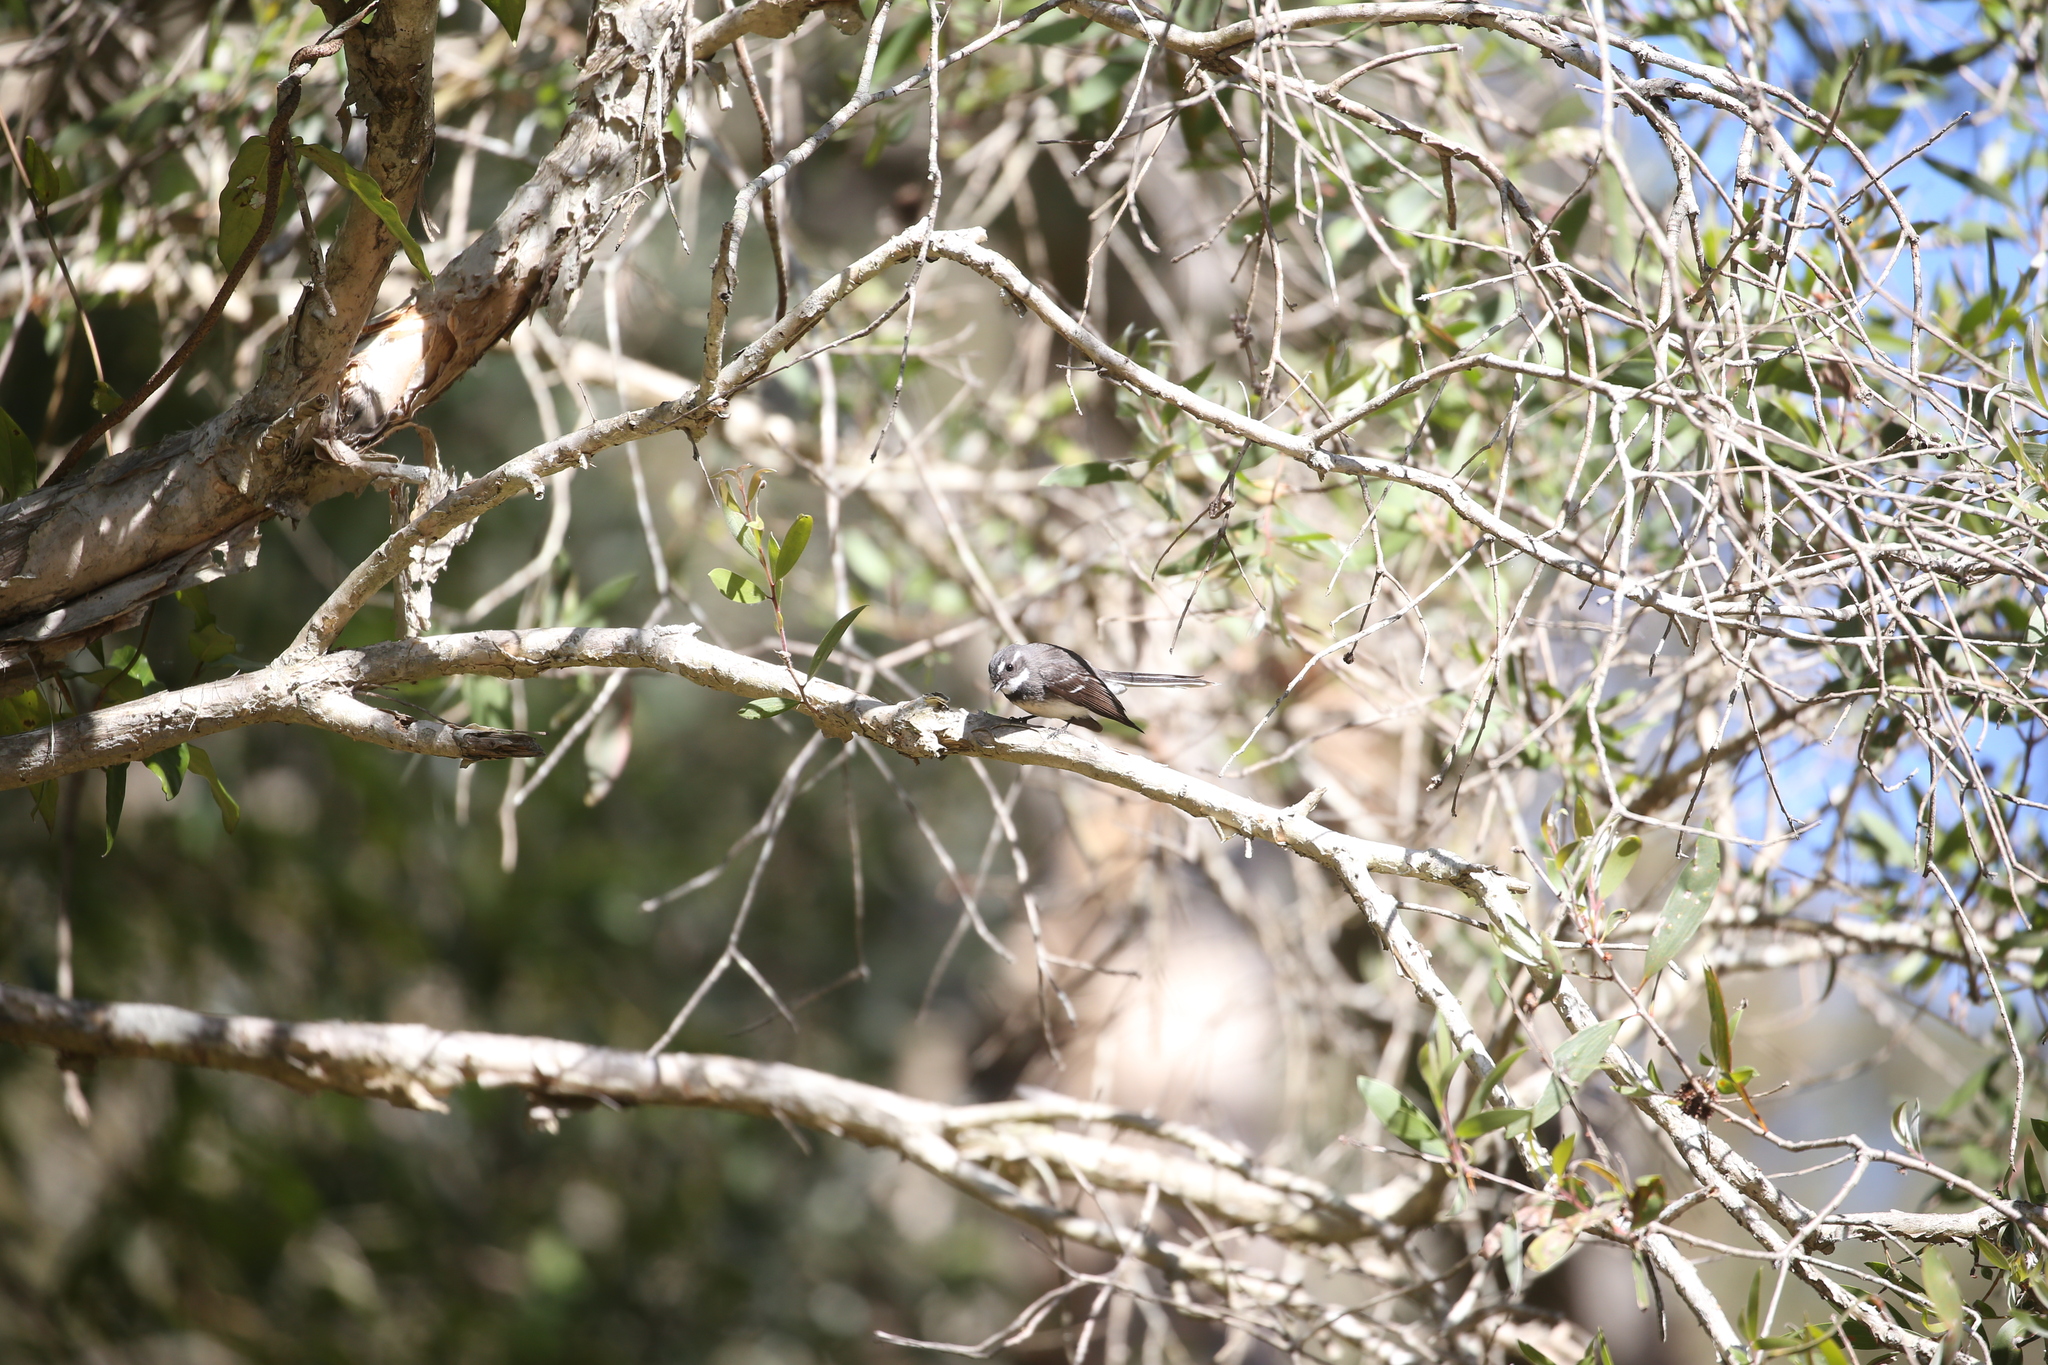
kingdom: Animalia
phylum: Chordata
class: Aves
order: Passeriformes
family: Rhipiduridae
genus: Rhipidura
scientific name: Rhipidura albiscapa
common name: Grey fantail
